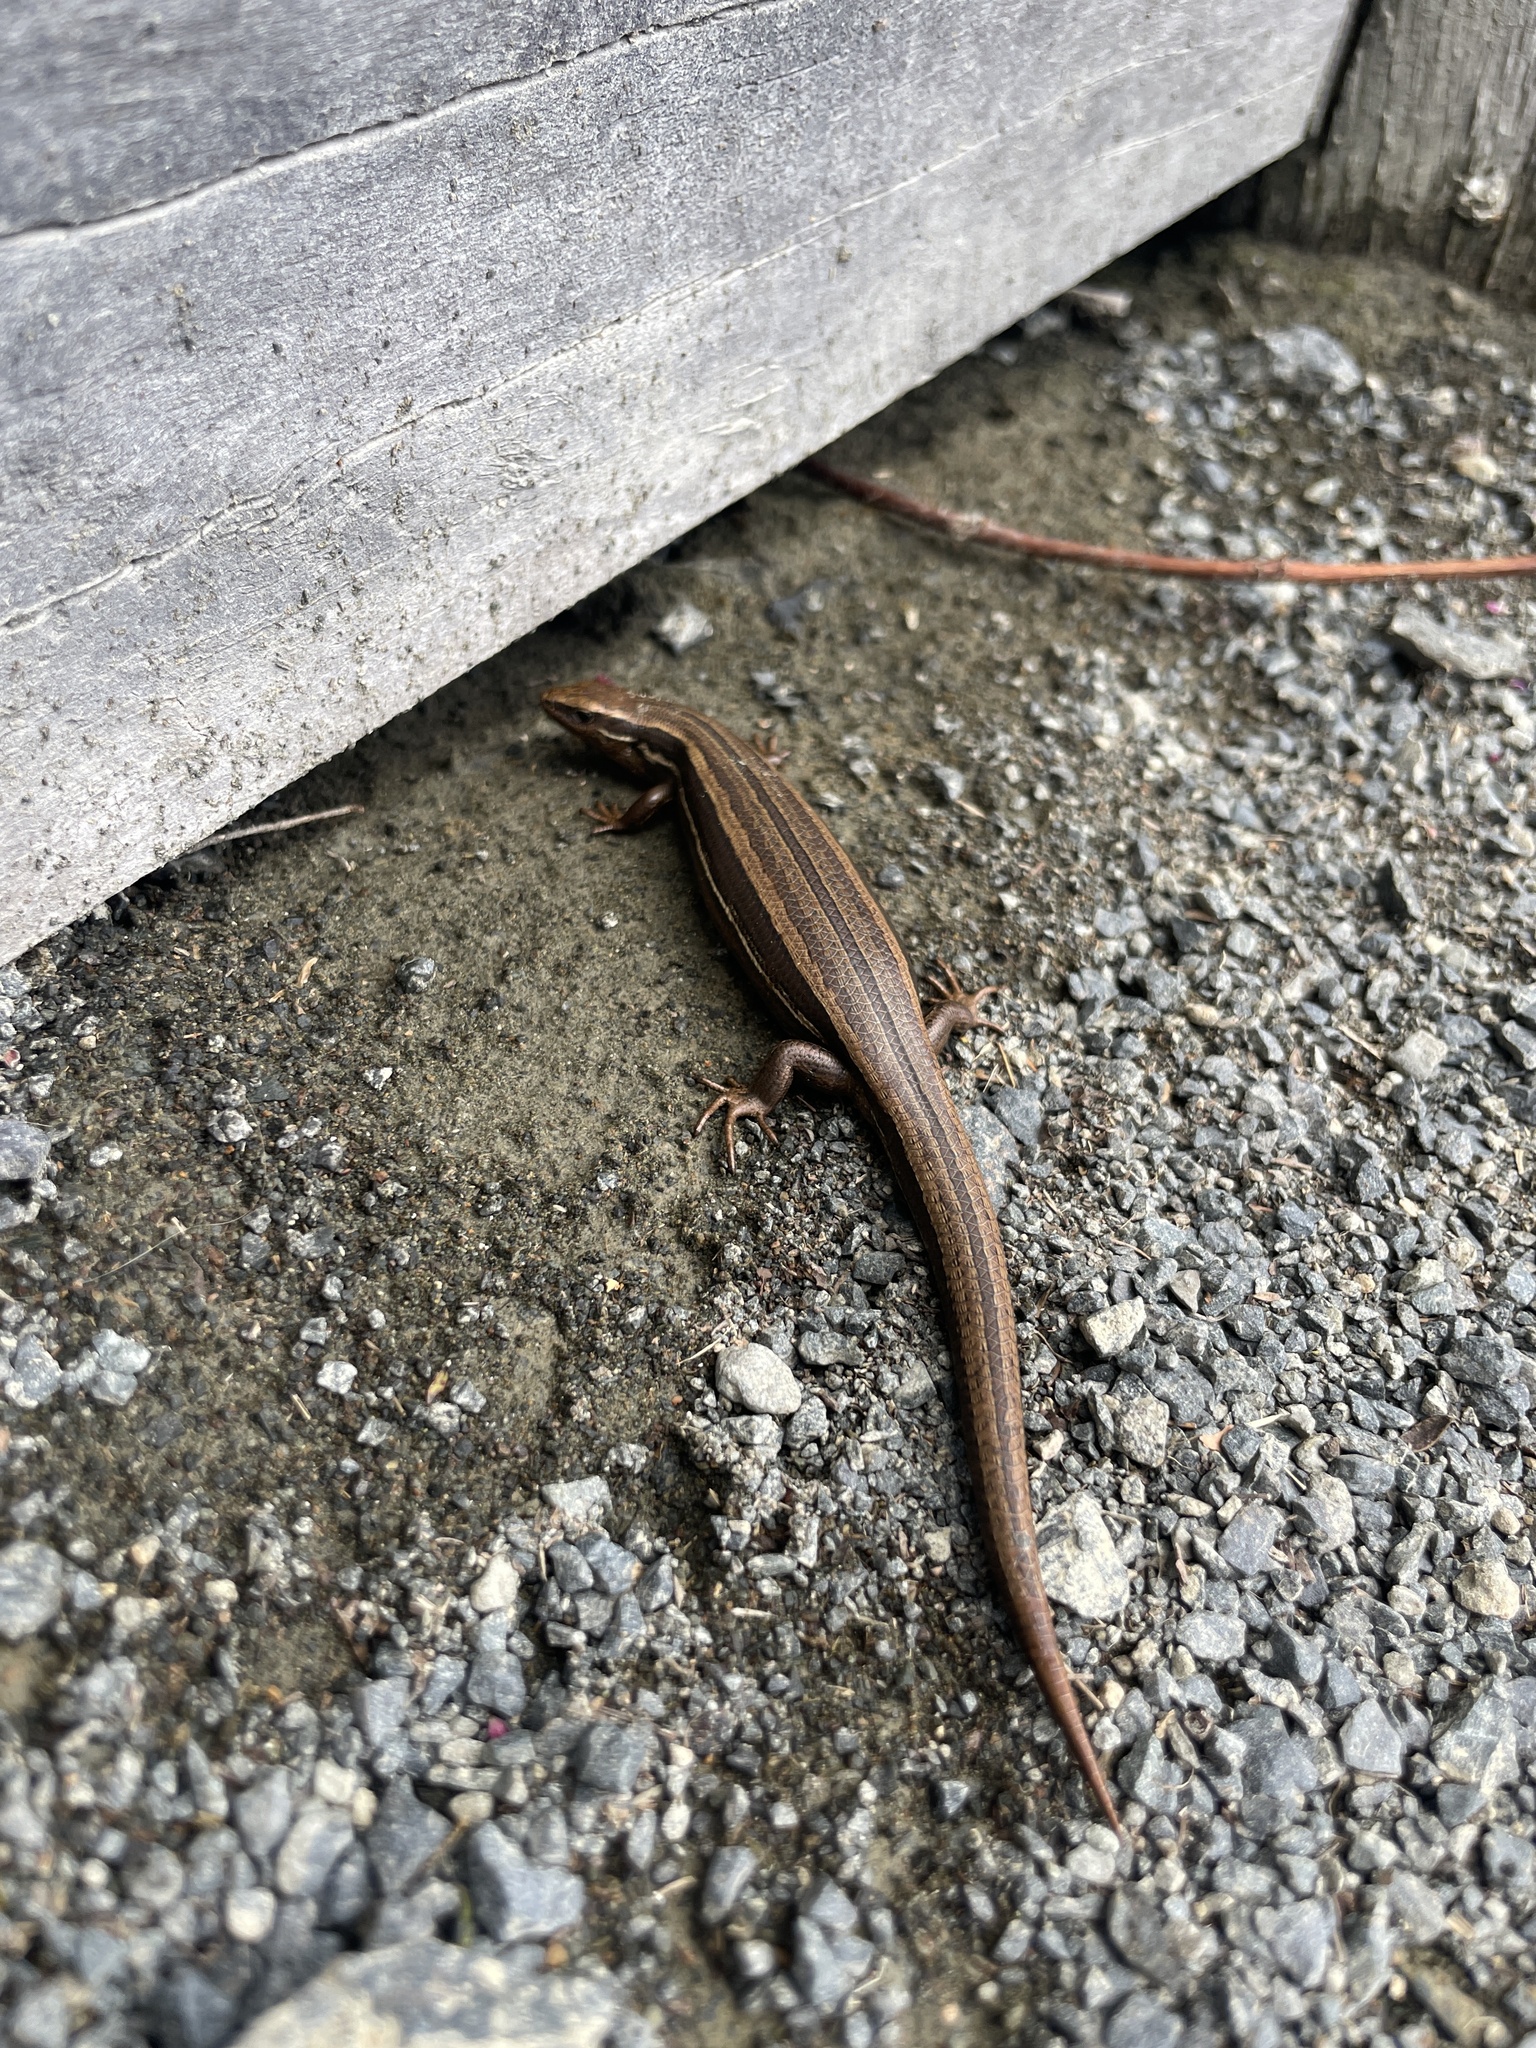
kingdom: Animalia
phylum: Chordata
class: Squamata
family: Scincidae
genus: Oligosoma
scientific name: Oligosoma polychroma
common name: Common new zealand skink
